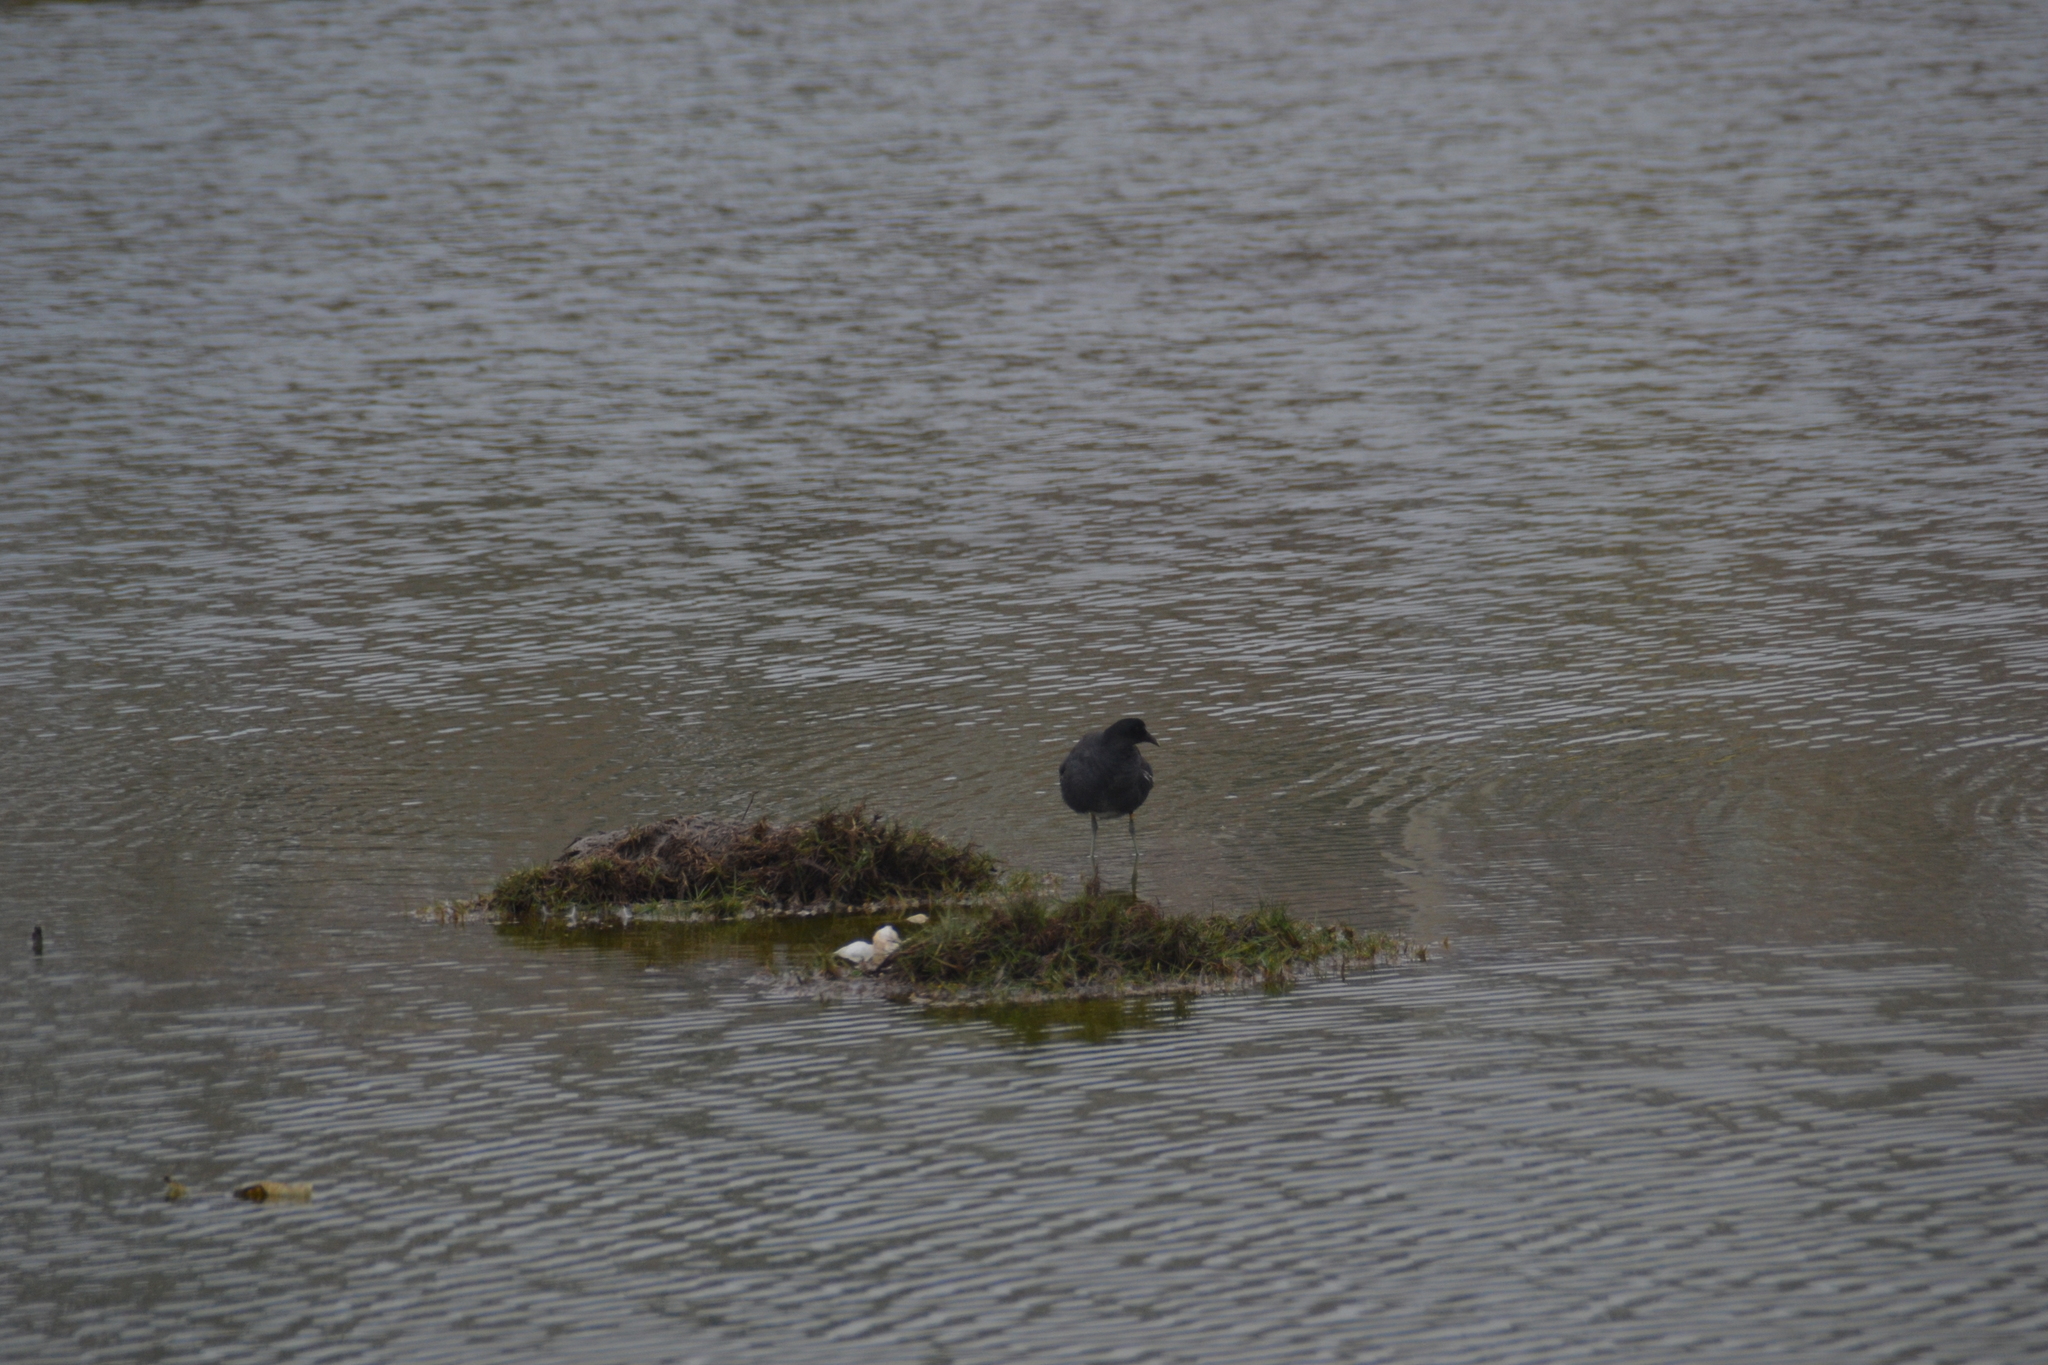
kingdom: Animalia
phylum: Chordata
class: Aves
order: Gruiformes
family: Rallidae
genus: Fulica
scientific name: Fulica ardesiaca
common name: Andean coot
